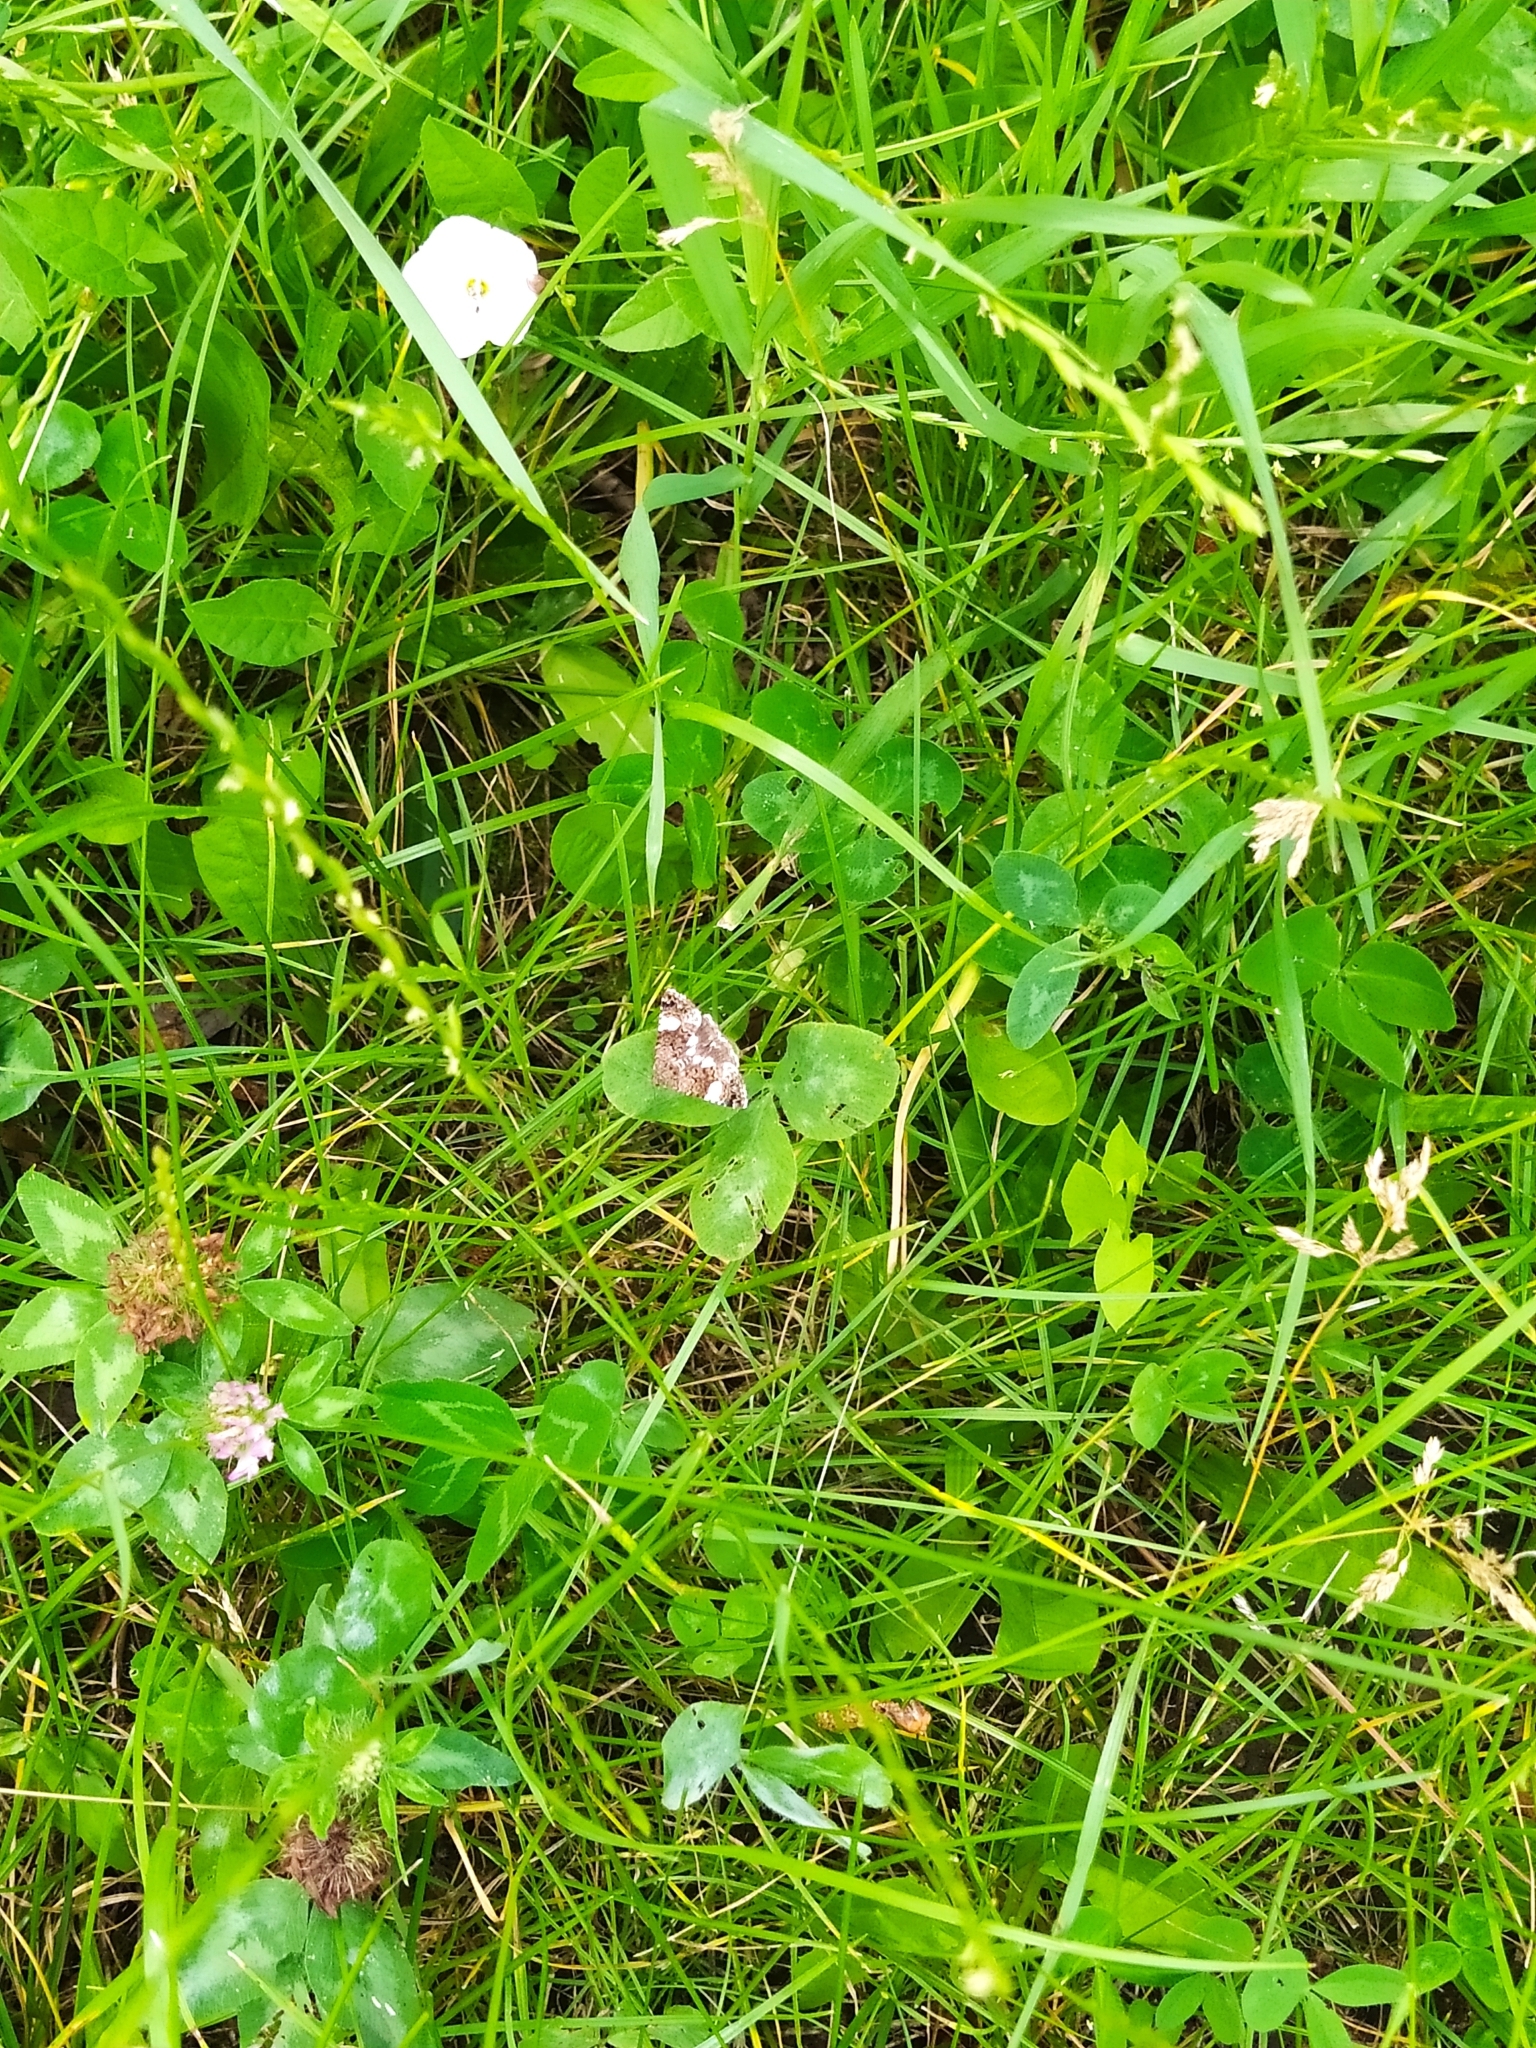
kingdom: Animalia
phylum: Arthropoda
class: Insecta
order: Lepidoptera
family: Erebidae
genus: Tyta
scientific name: Tyta luctuosa
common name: Four-spotted
